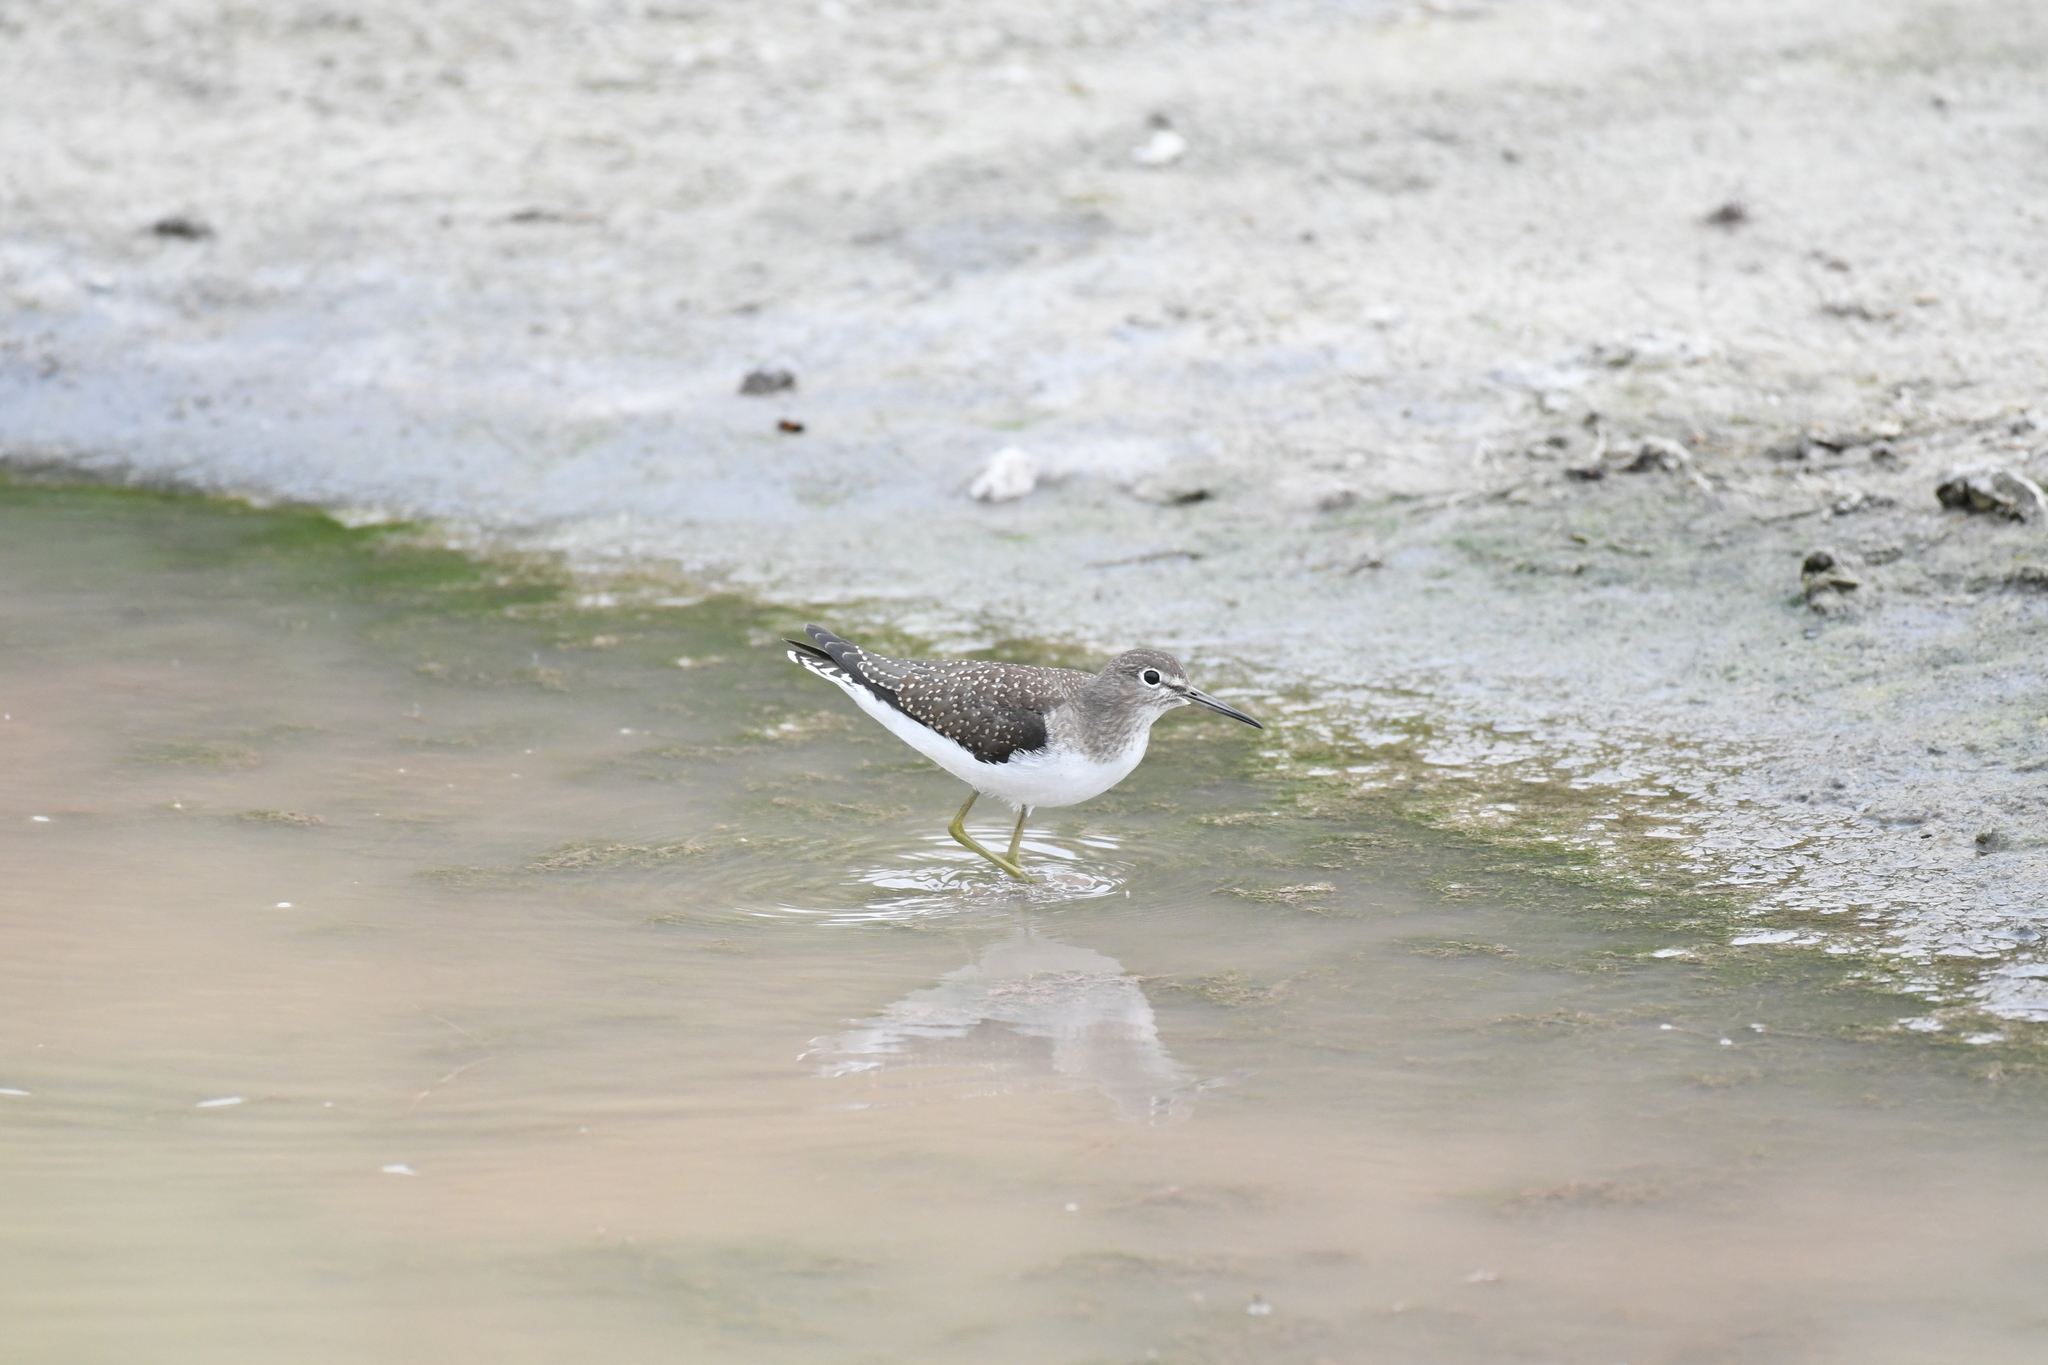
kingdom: Animalia
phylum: Chordata
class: Aves
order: Charadriiformes
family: Scolopacidae
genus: Tringa
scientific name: Tringa solitaria
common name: Solitary sandpiper
